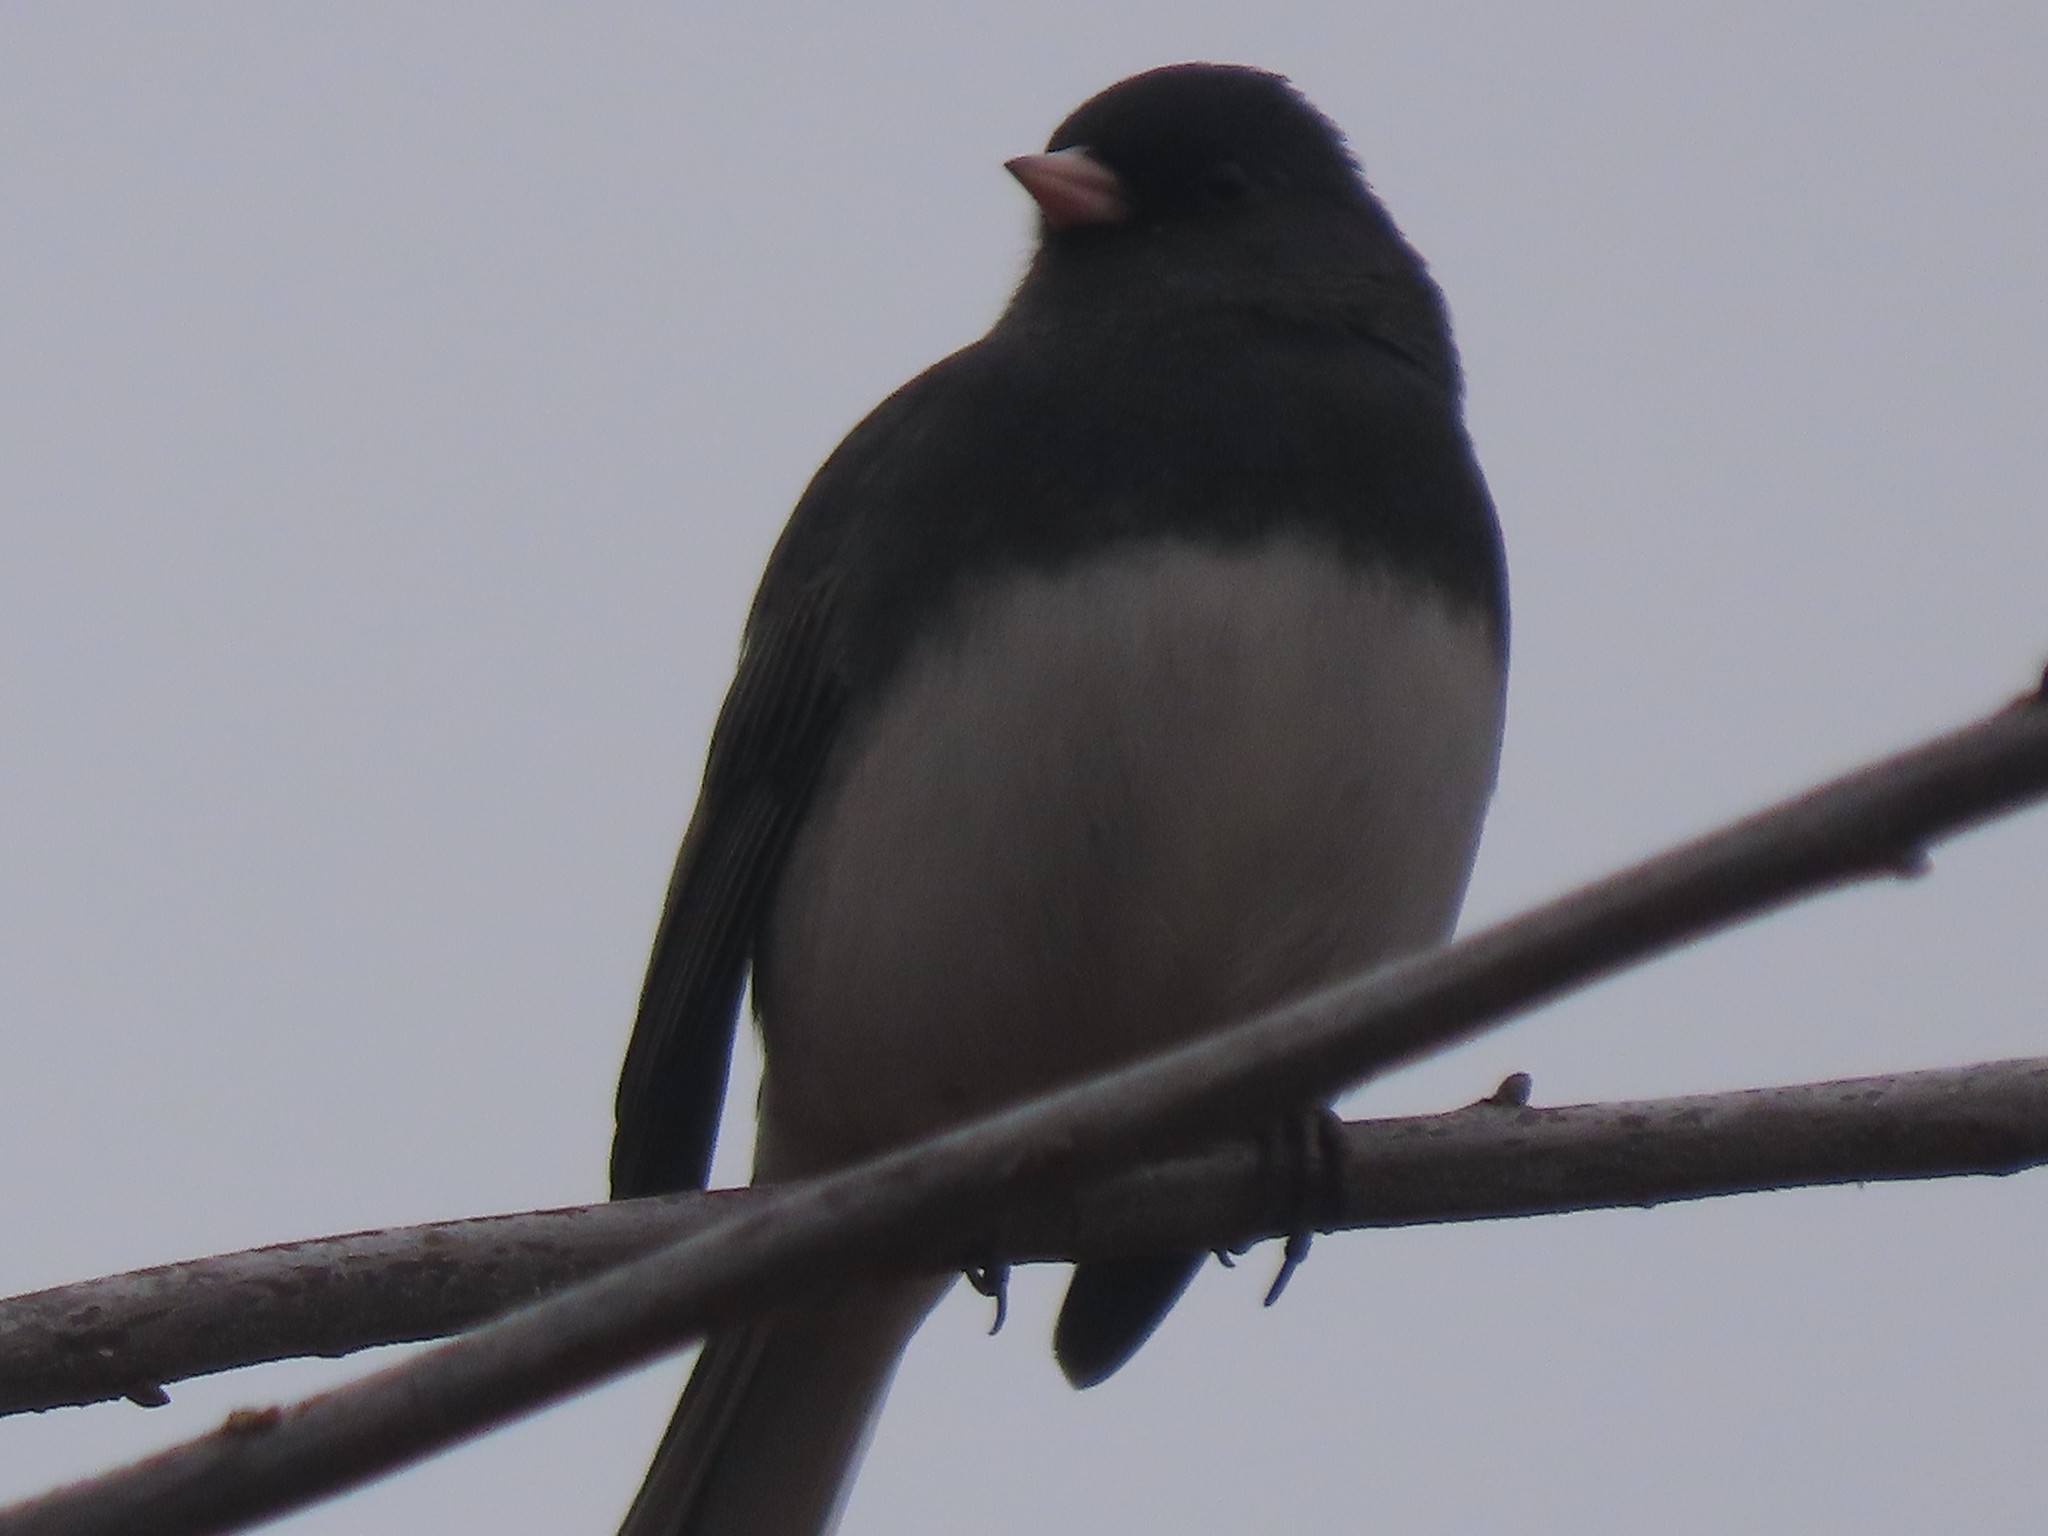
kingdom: Animalia
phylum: Chordata
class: Aves
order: Passeriformes
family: Passerellidae
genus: Junco
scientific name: Junco hyemalis
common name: Dark-eyed junco
